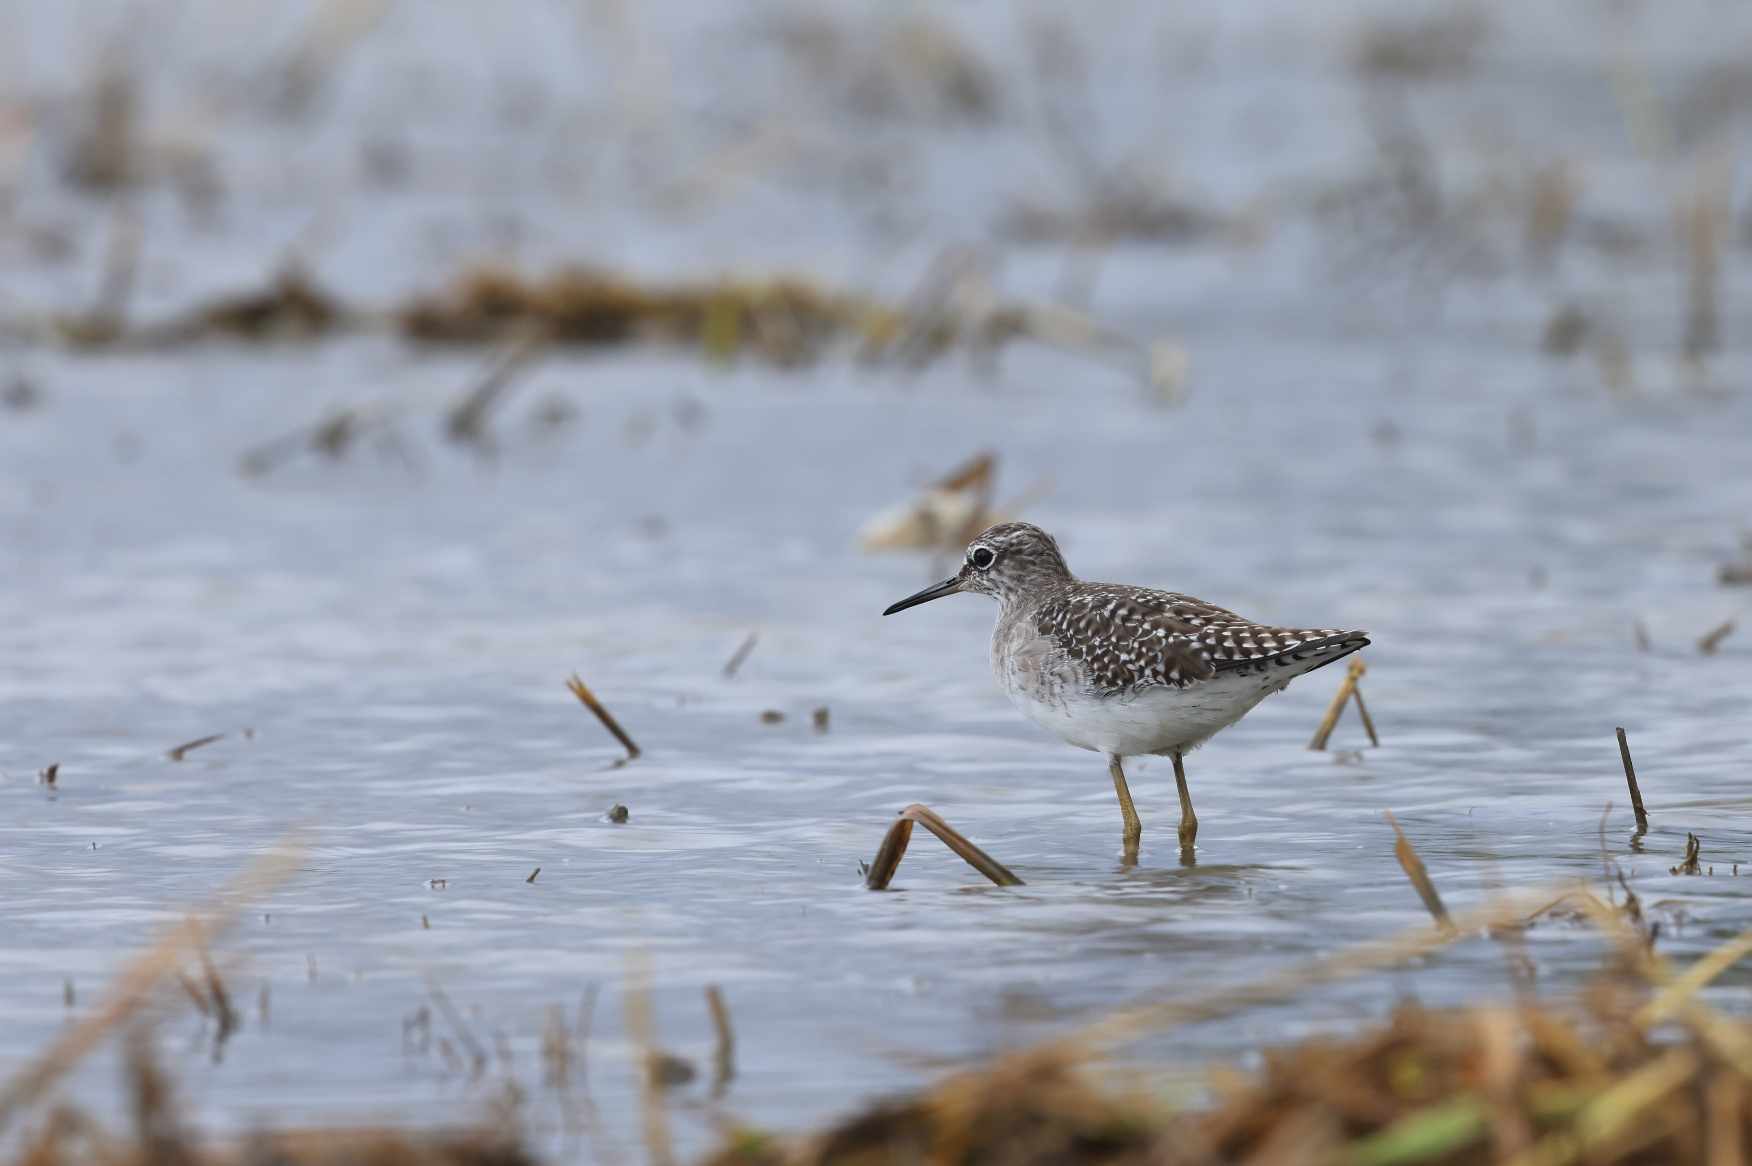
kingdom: Animalia
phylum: Chordata
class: Aves
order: Charadriiformes
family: Scolopacidae
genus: Tringa
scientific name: Tringa glareola
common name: Wood sandpiper
